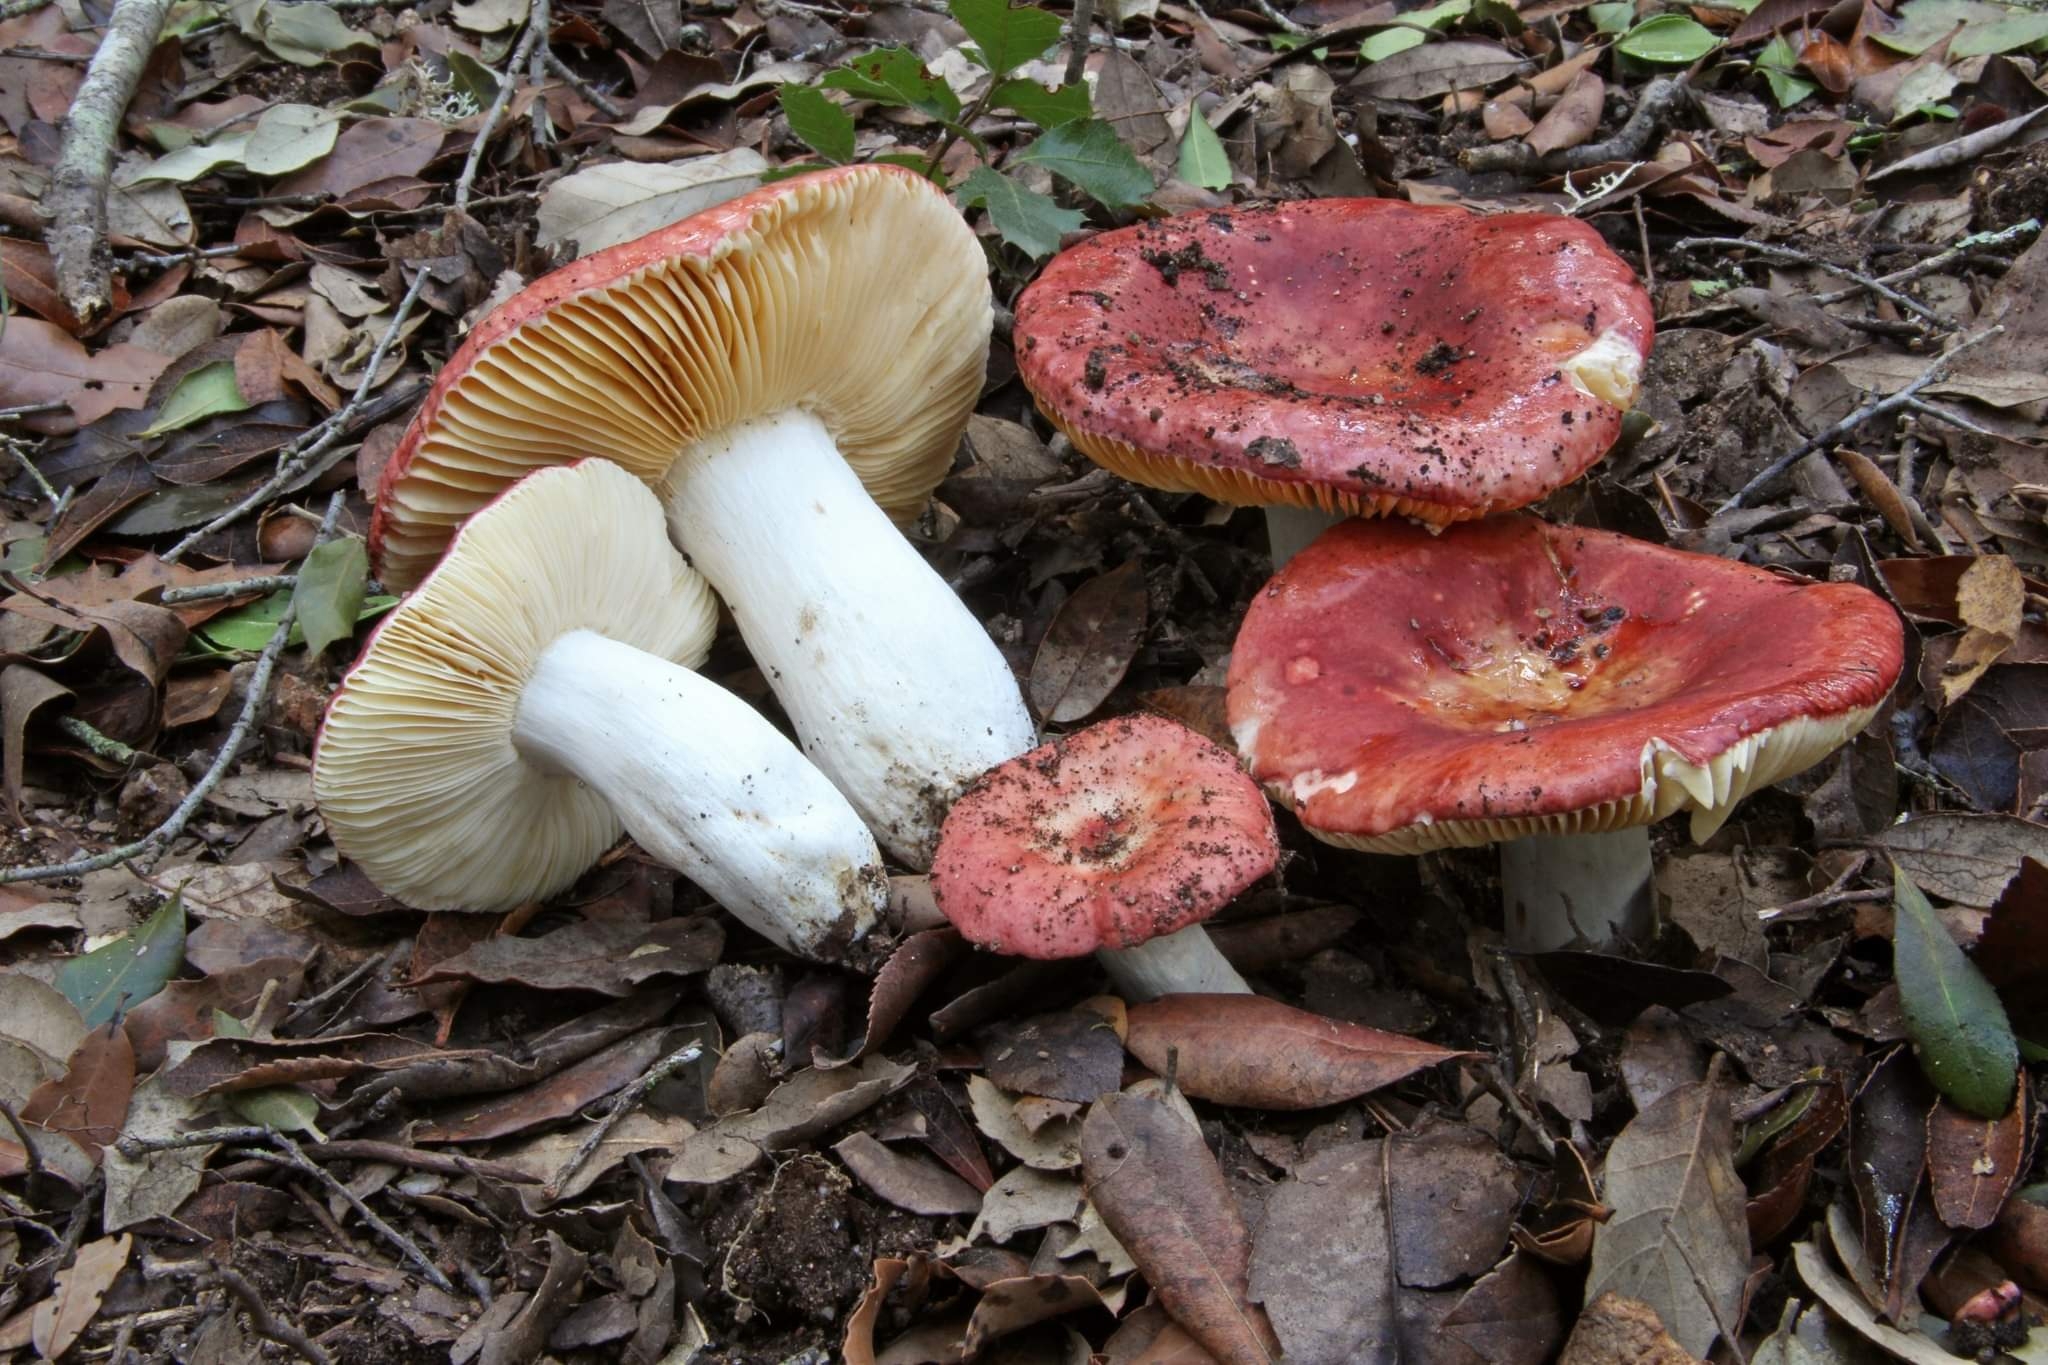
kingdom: Fungi
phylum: Basidiomycota
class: Agaricomycetes
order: Russulales
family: Russulaceae
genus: Russula
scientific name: Russula rubroalba
